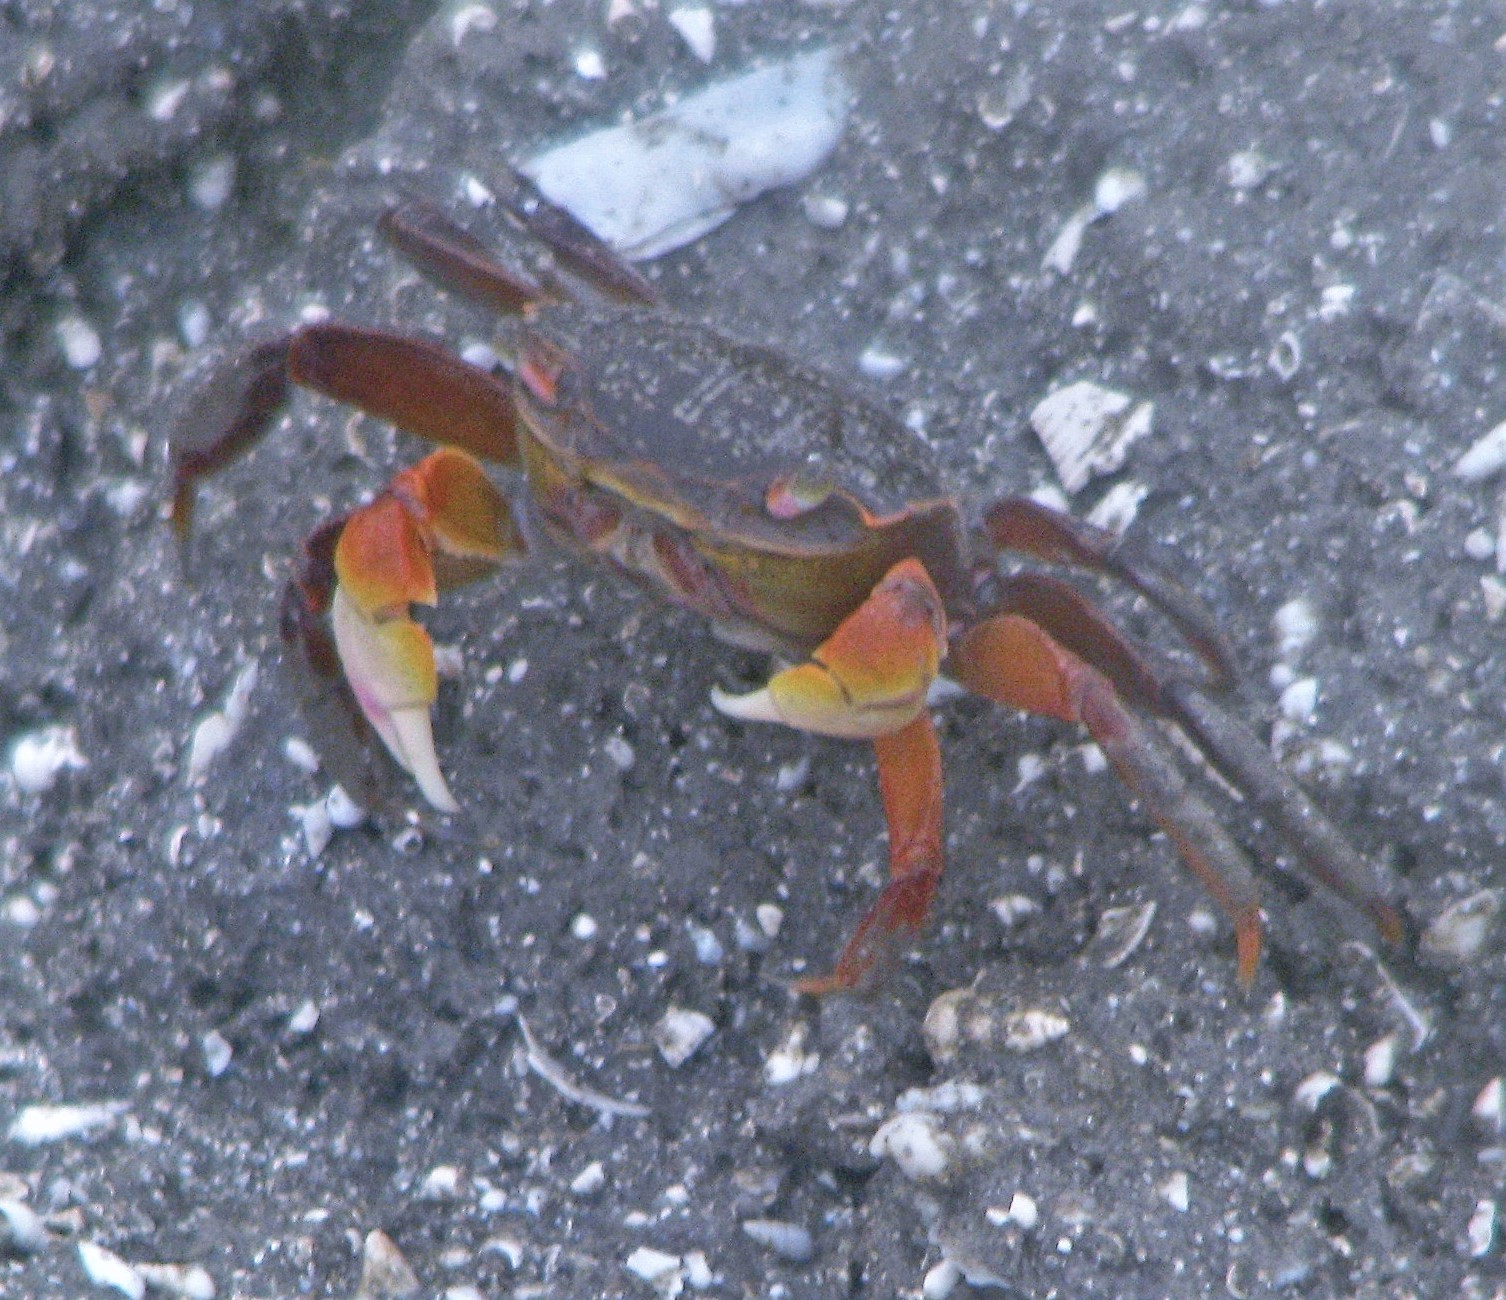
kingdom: Animalia
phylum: Arthropoda
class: Malacostraca
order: Decapoda
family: Varunidae
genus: Neohelice
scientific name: Neohelice granulata
